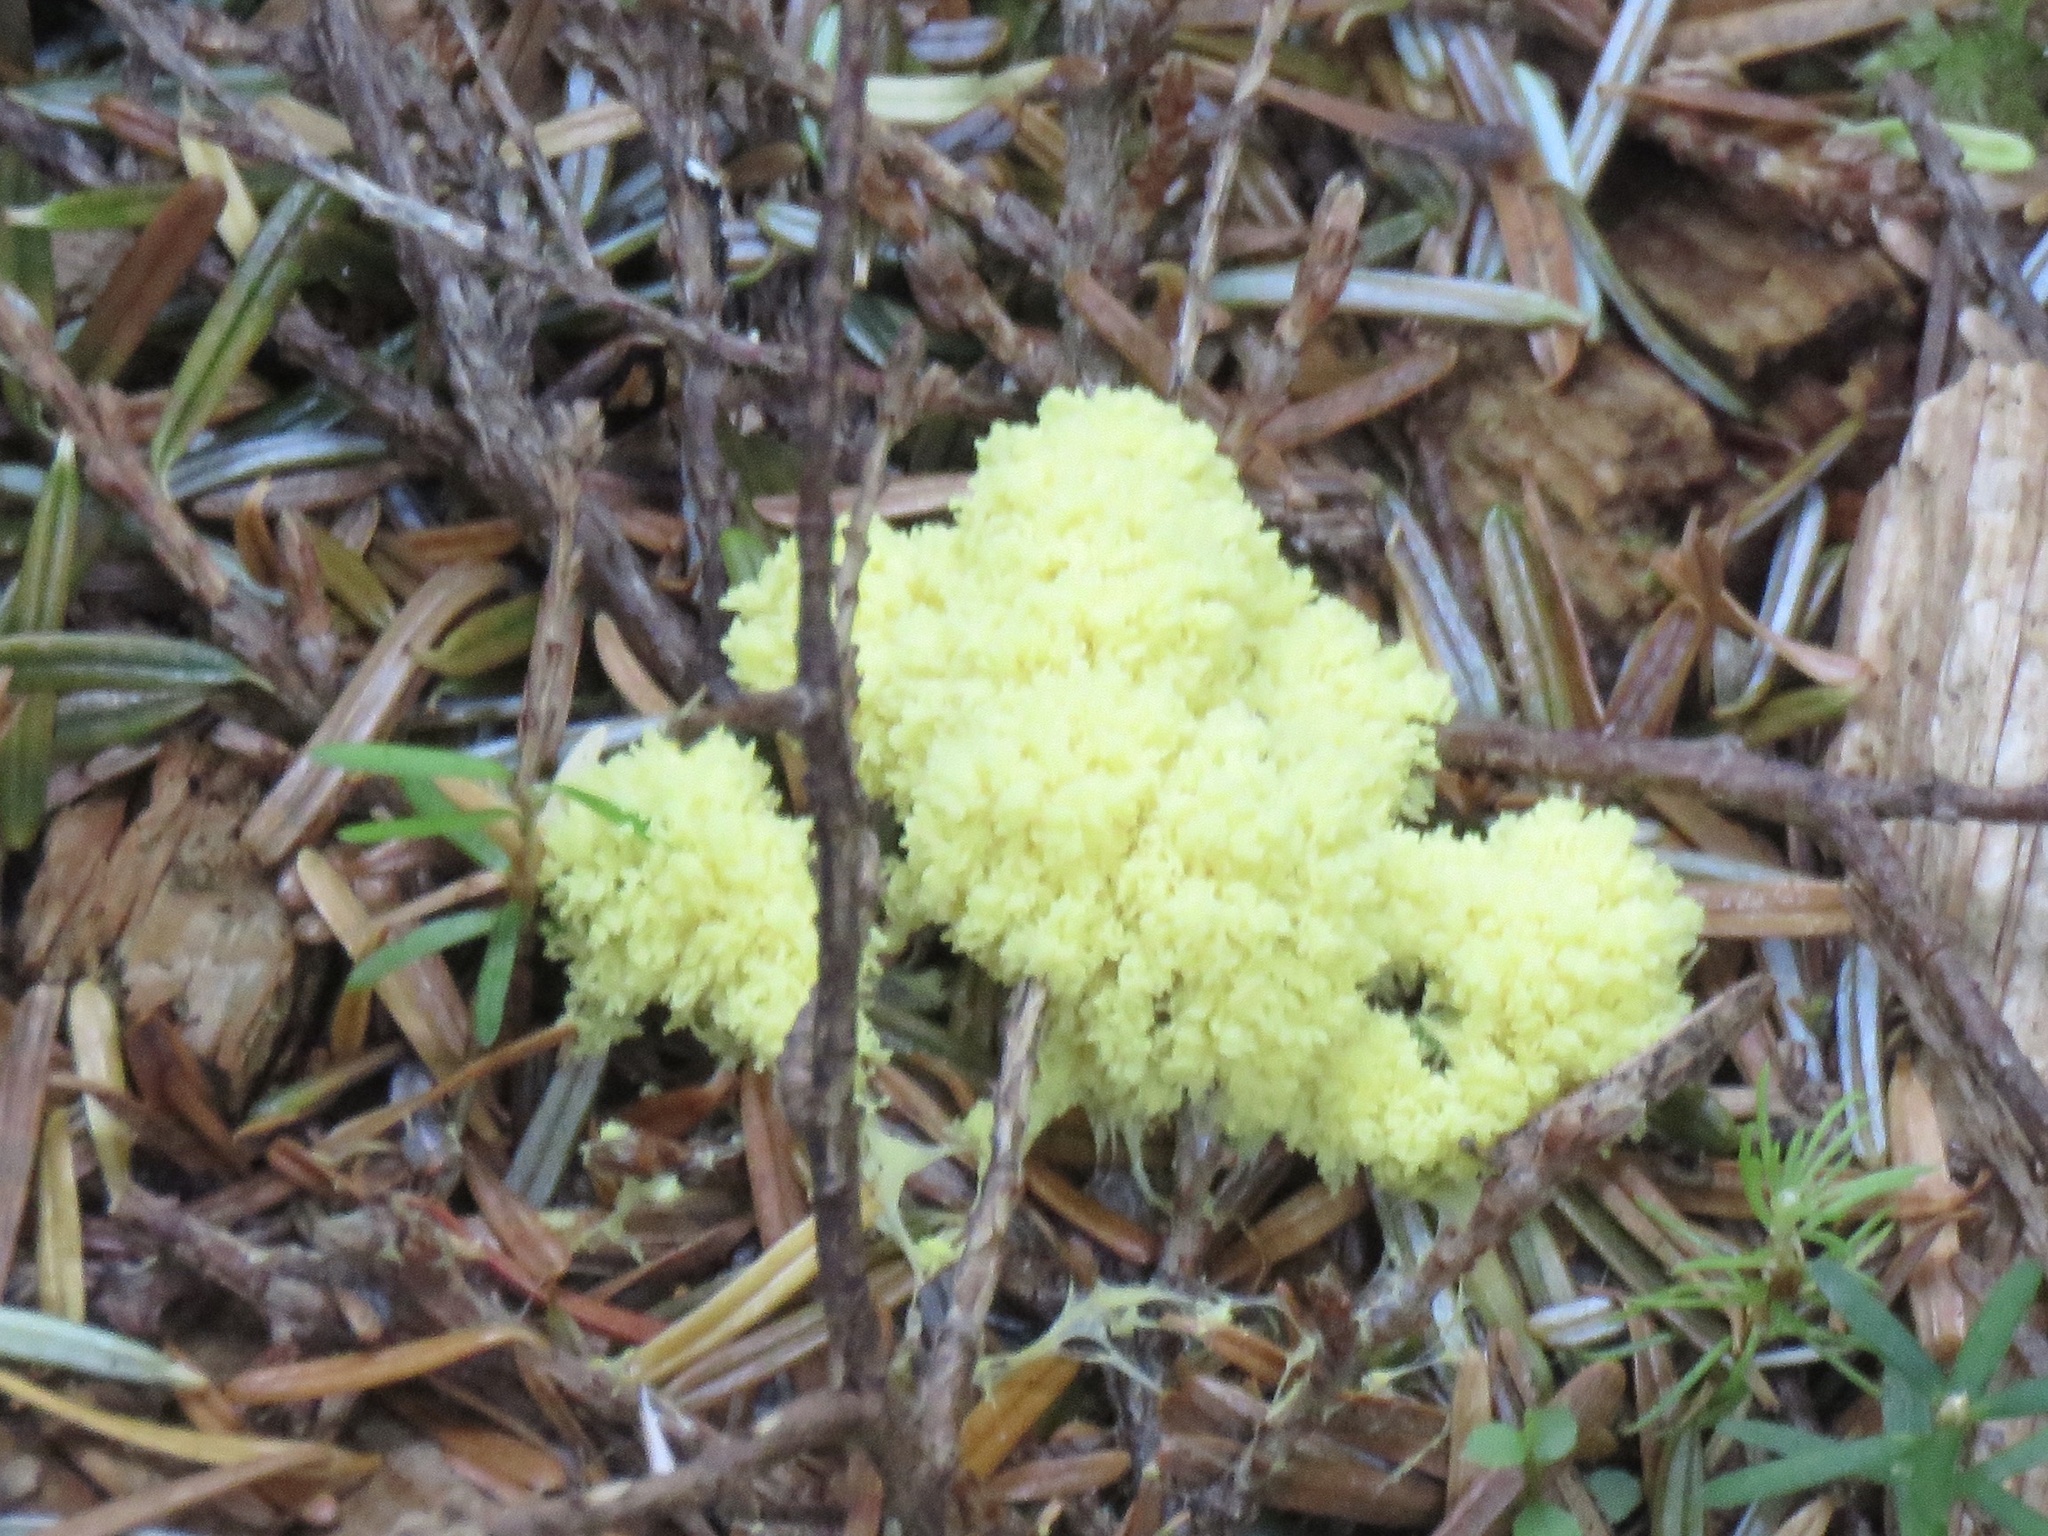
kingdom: Protozoa
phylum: Mycetozoa
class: Myxomycetes
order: Physarales
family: Physaraceae
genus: Fuligo
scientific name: Fuligo septica
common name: Dog vomit slime mold
